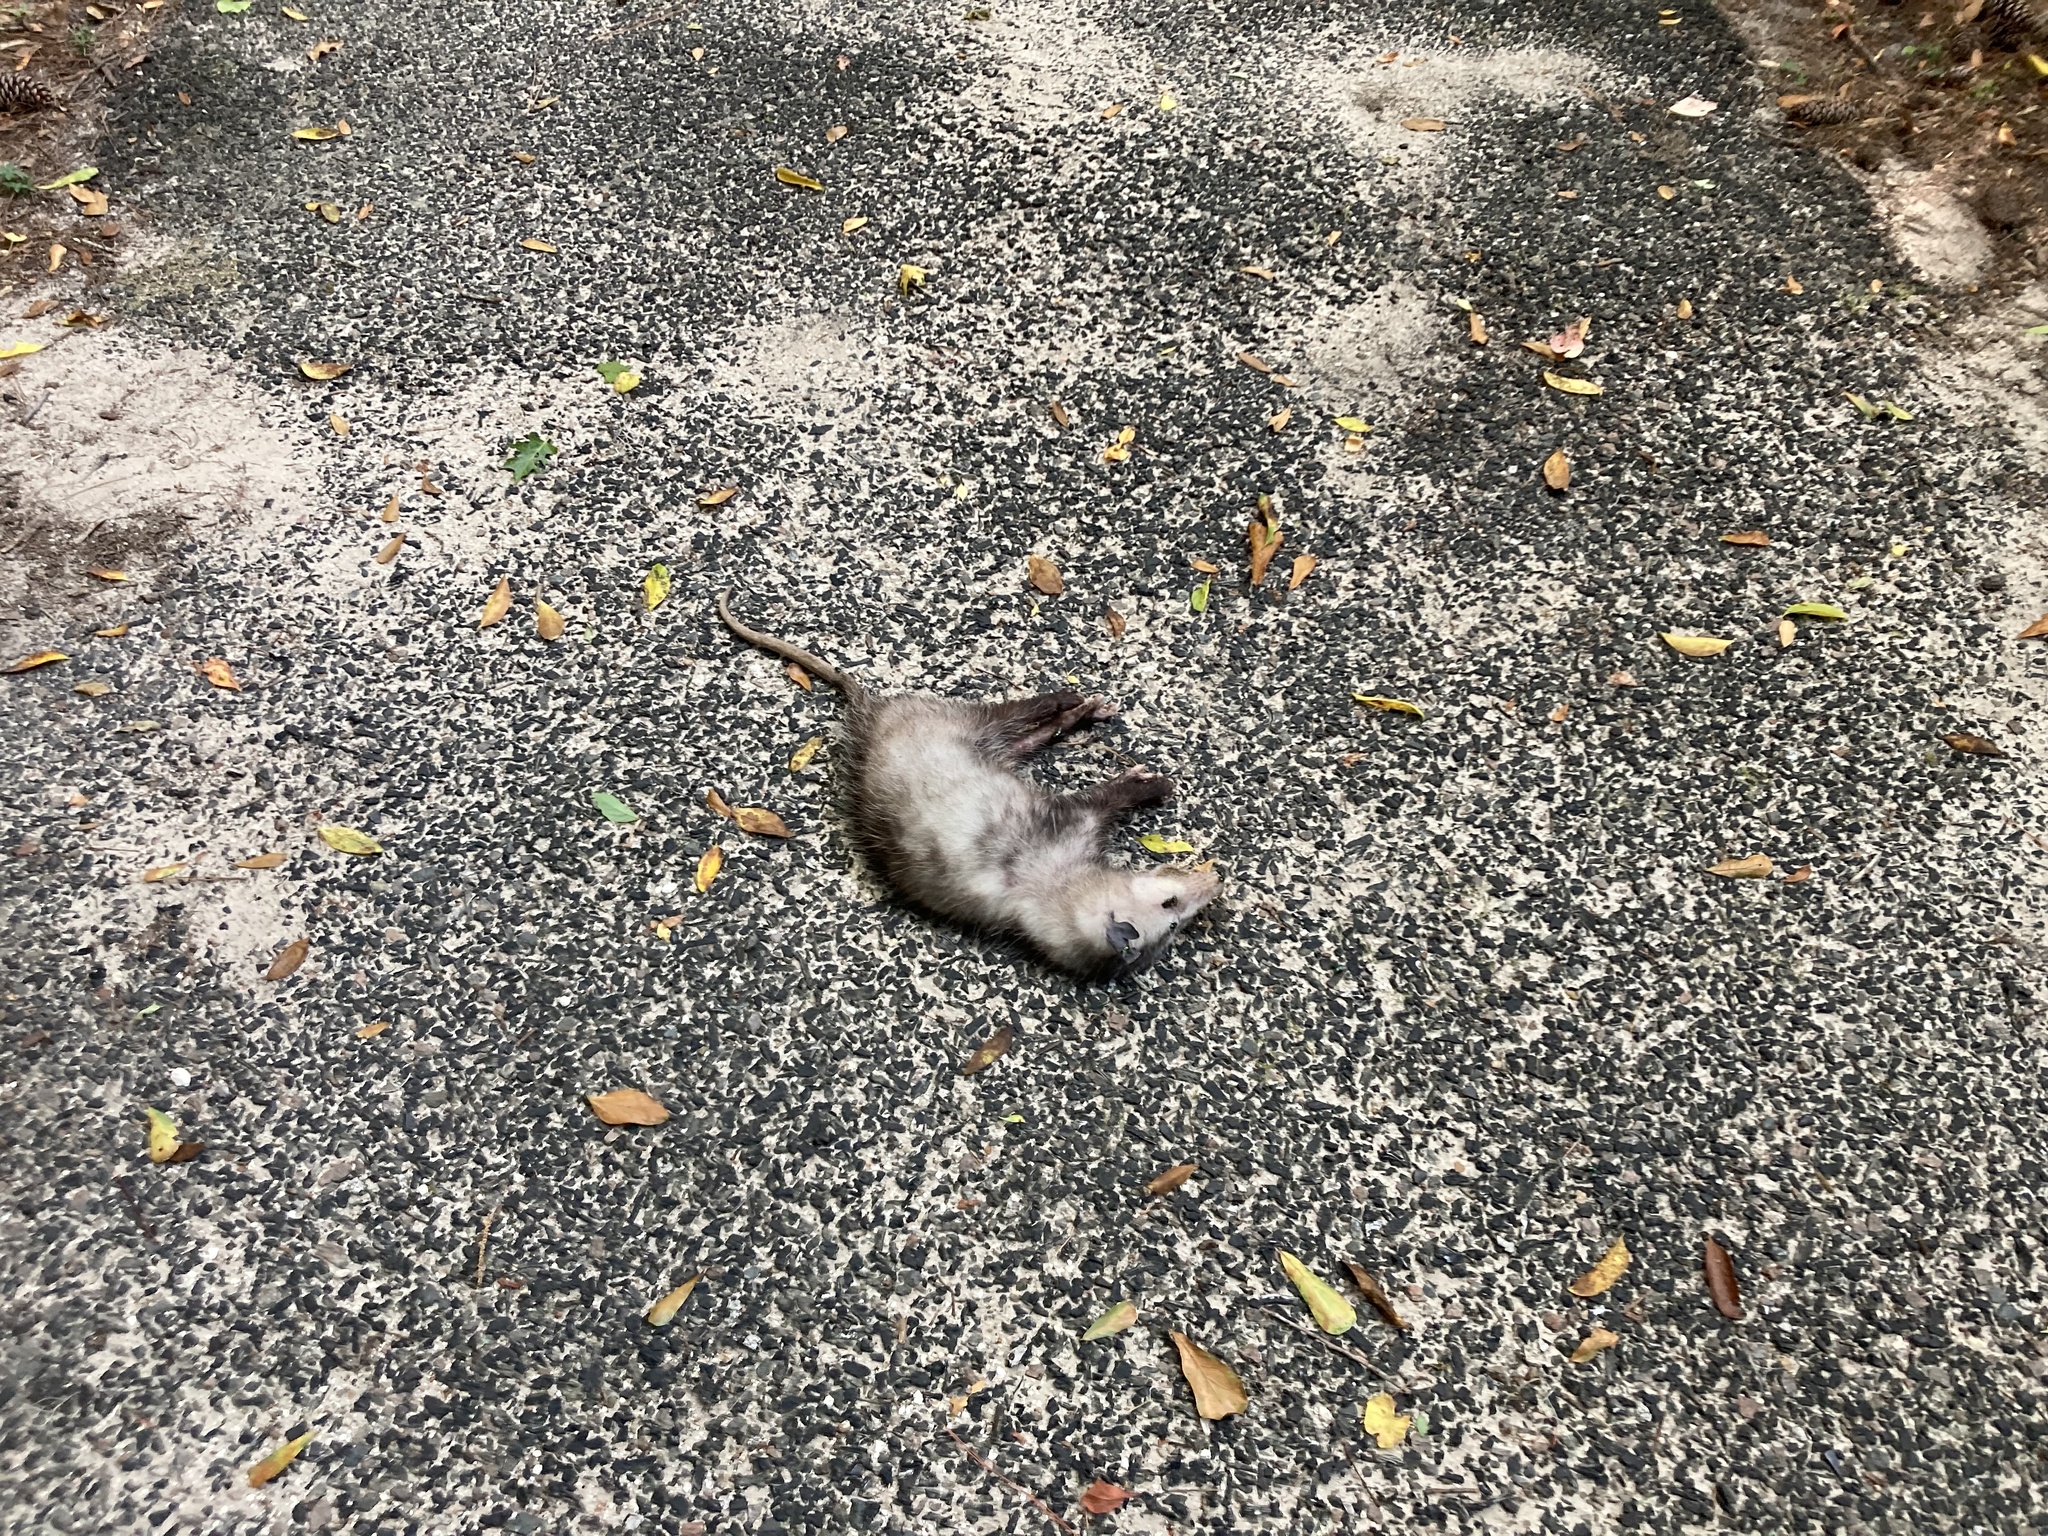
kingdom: Animalia
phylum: Chordata
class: Mammalia
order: Didelphimorphia
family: Didelphidae
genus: Didelphis
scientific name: Didelphis virginiana
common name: Virginia opossum
